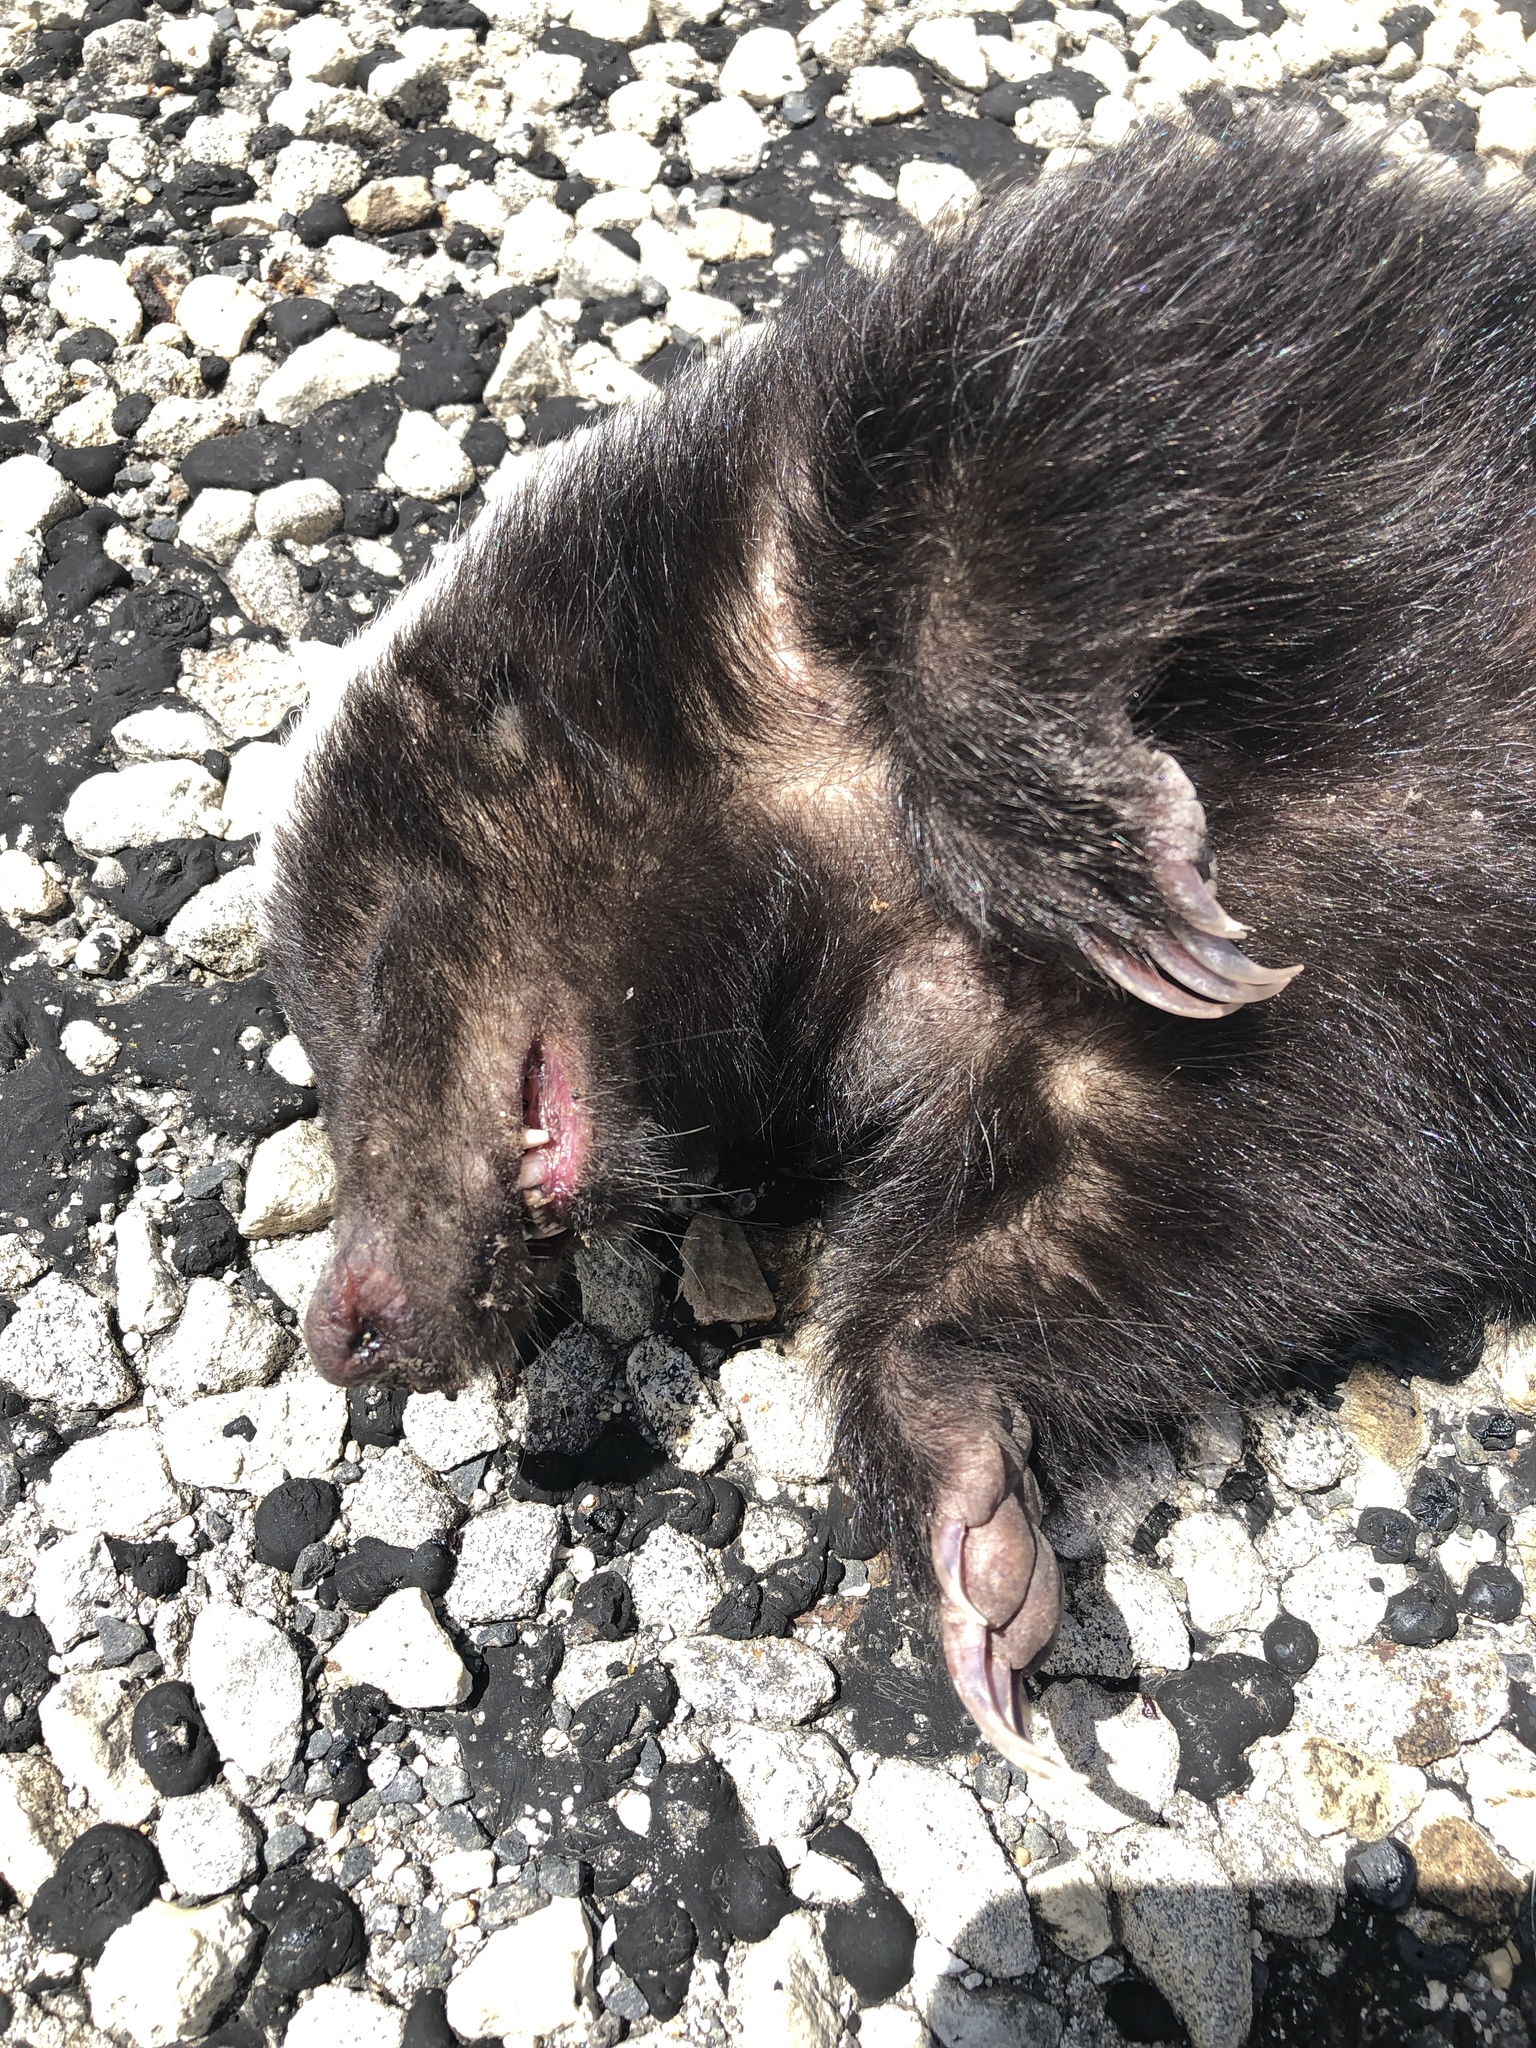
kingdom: Animalia
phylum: Chordata
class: Mammalia
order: Carnivora
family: Mephitidae
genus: Conepatus
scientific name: Conepatus leuconotus
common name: Eastern hog-nosed skunk
